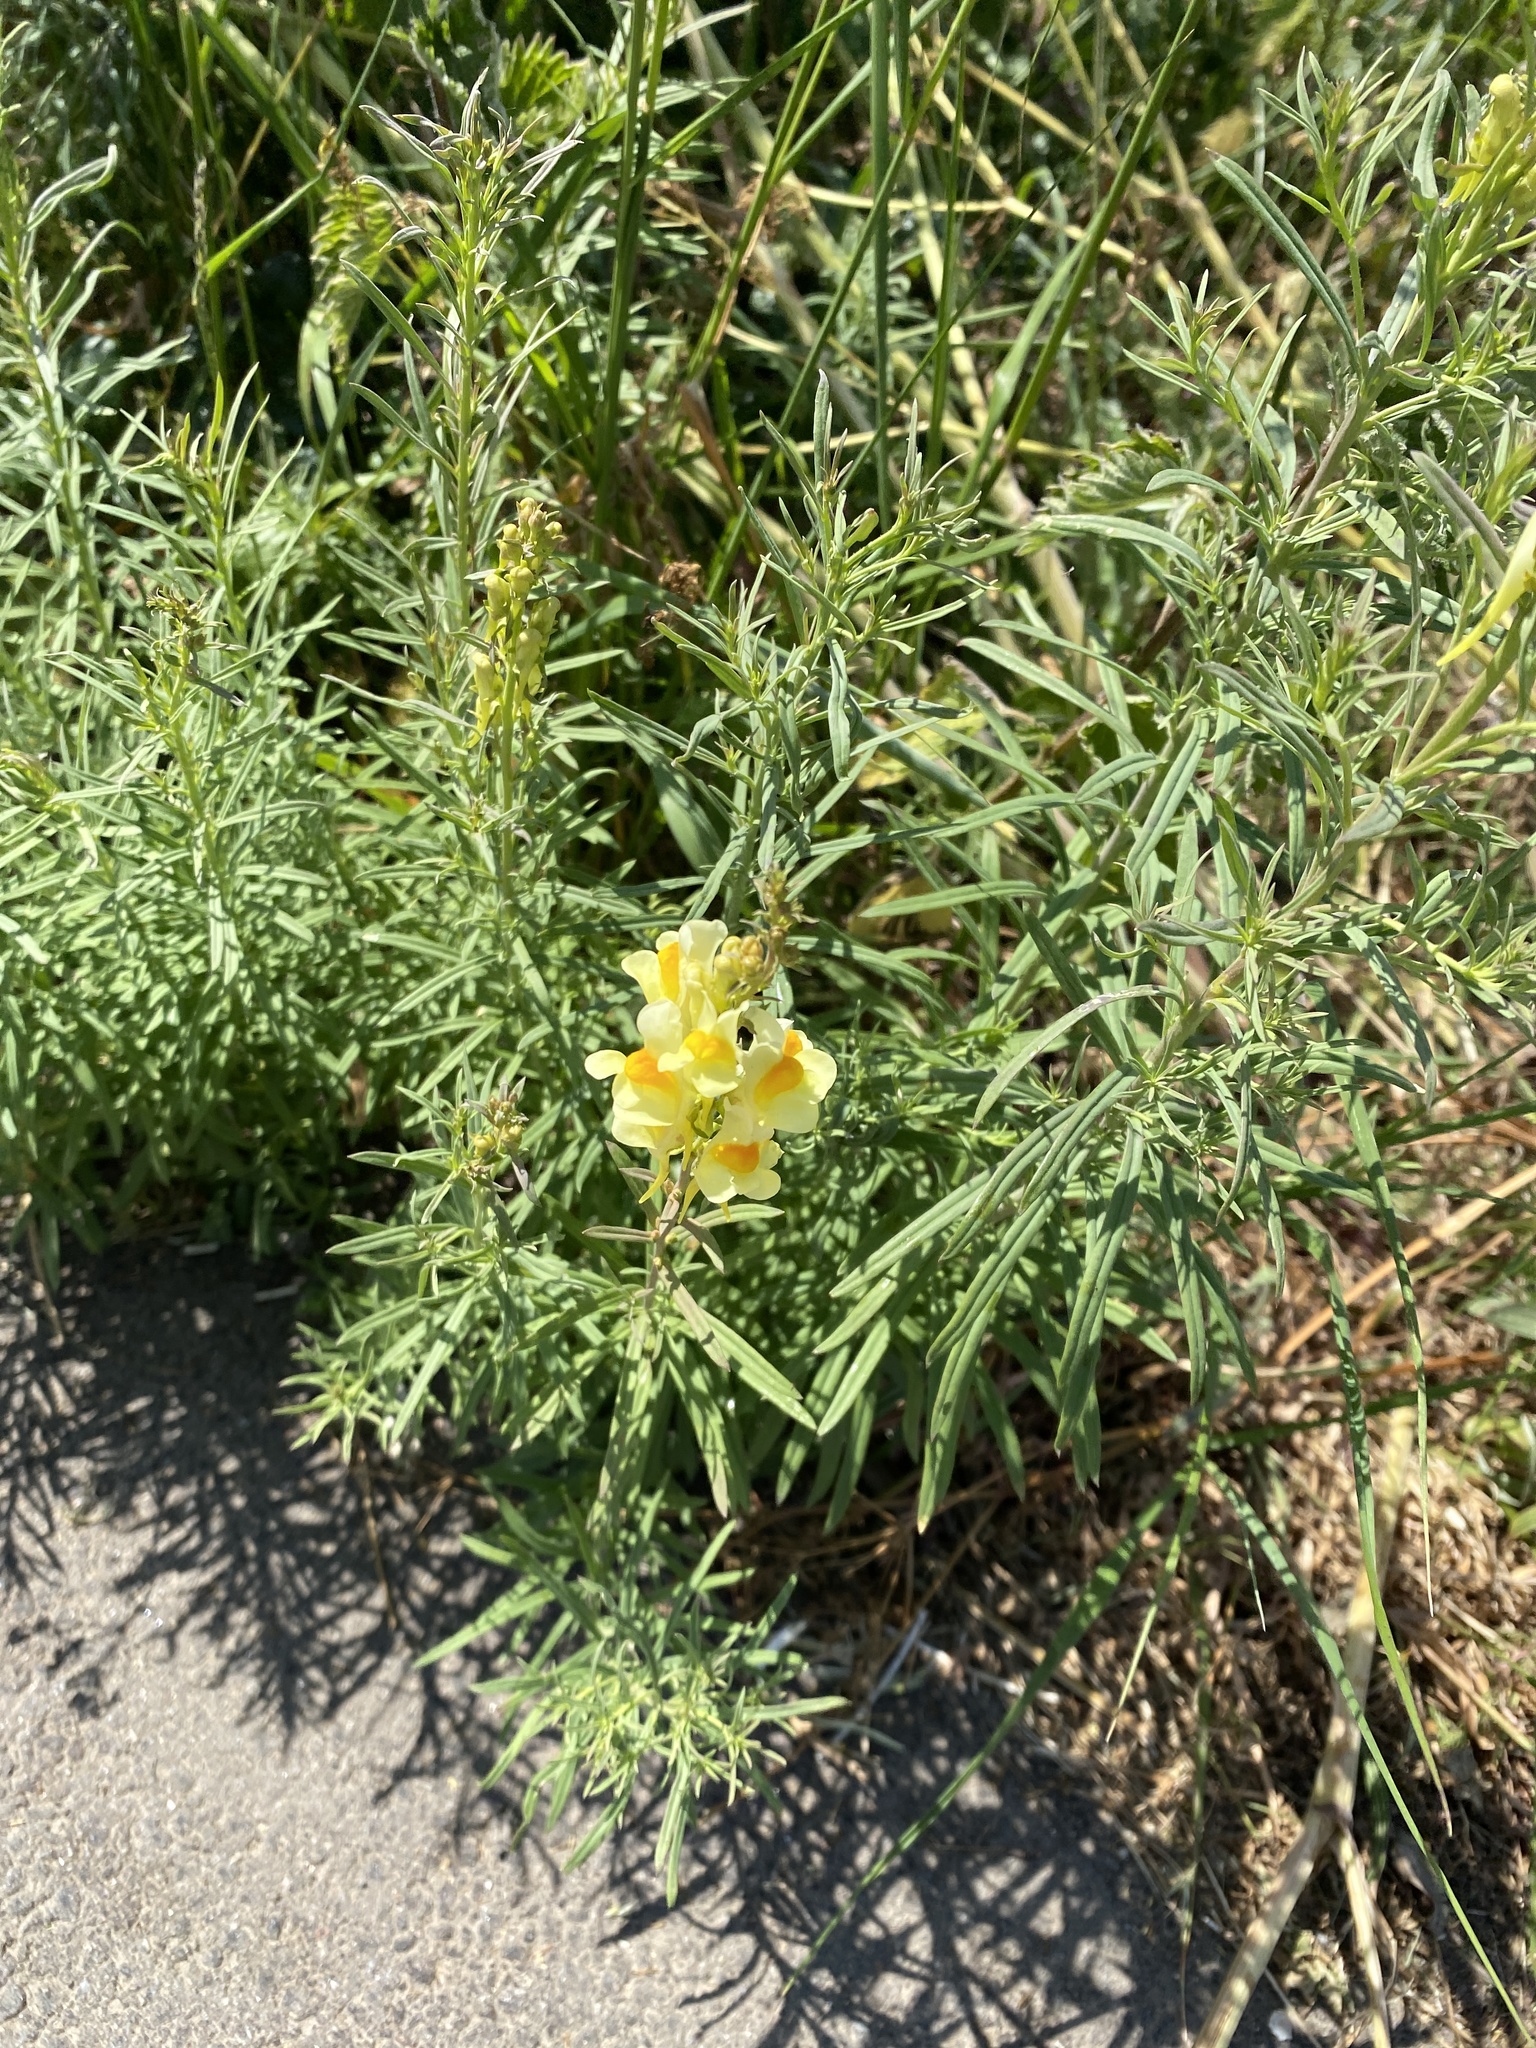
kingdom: Plantae
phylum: Tracheophyta
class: Magnoliopsida
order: Lamiales
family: Plantaginaceae
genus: Linaria
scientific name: Linaria vulgaris
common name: Butter and eggs
